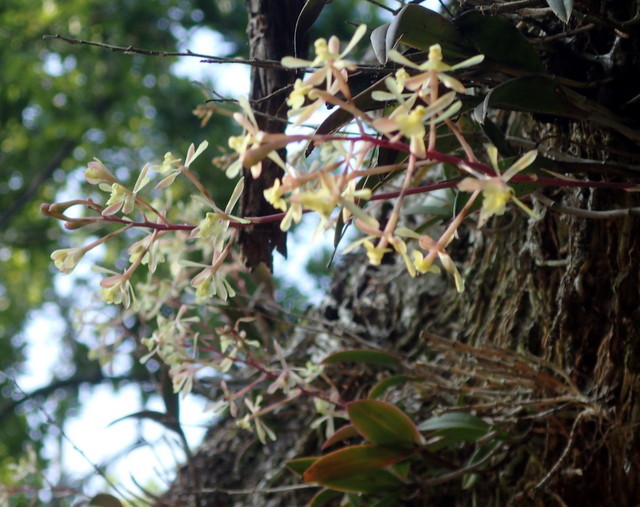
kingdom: Plantae
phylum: Tracheophyta
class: Liliopsida
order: Asparagales
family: Orchidaceae
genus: Epidendrum
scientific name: Epidendrum conopseum
